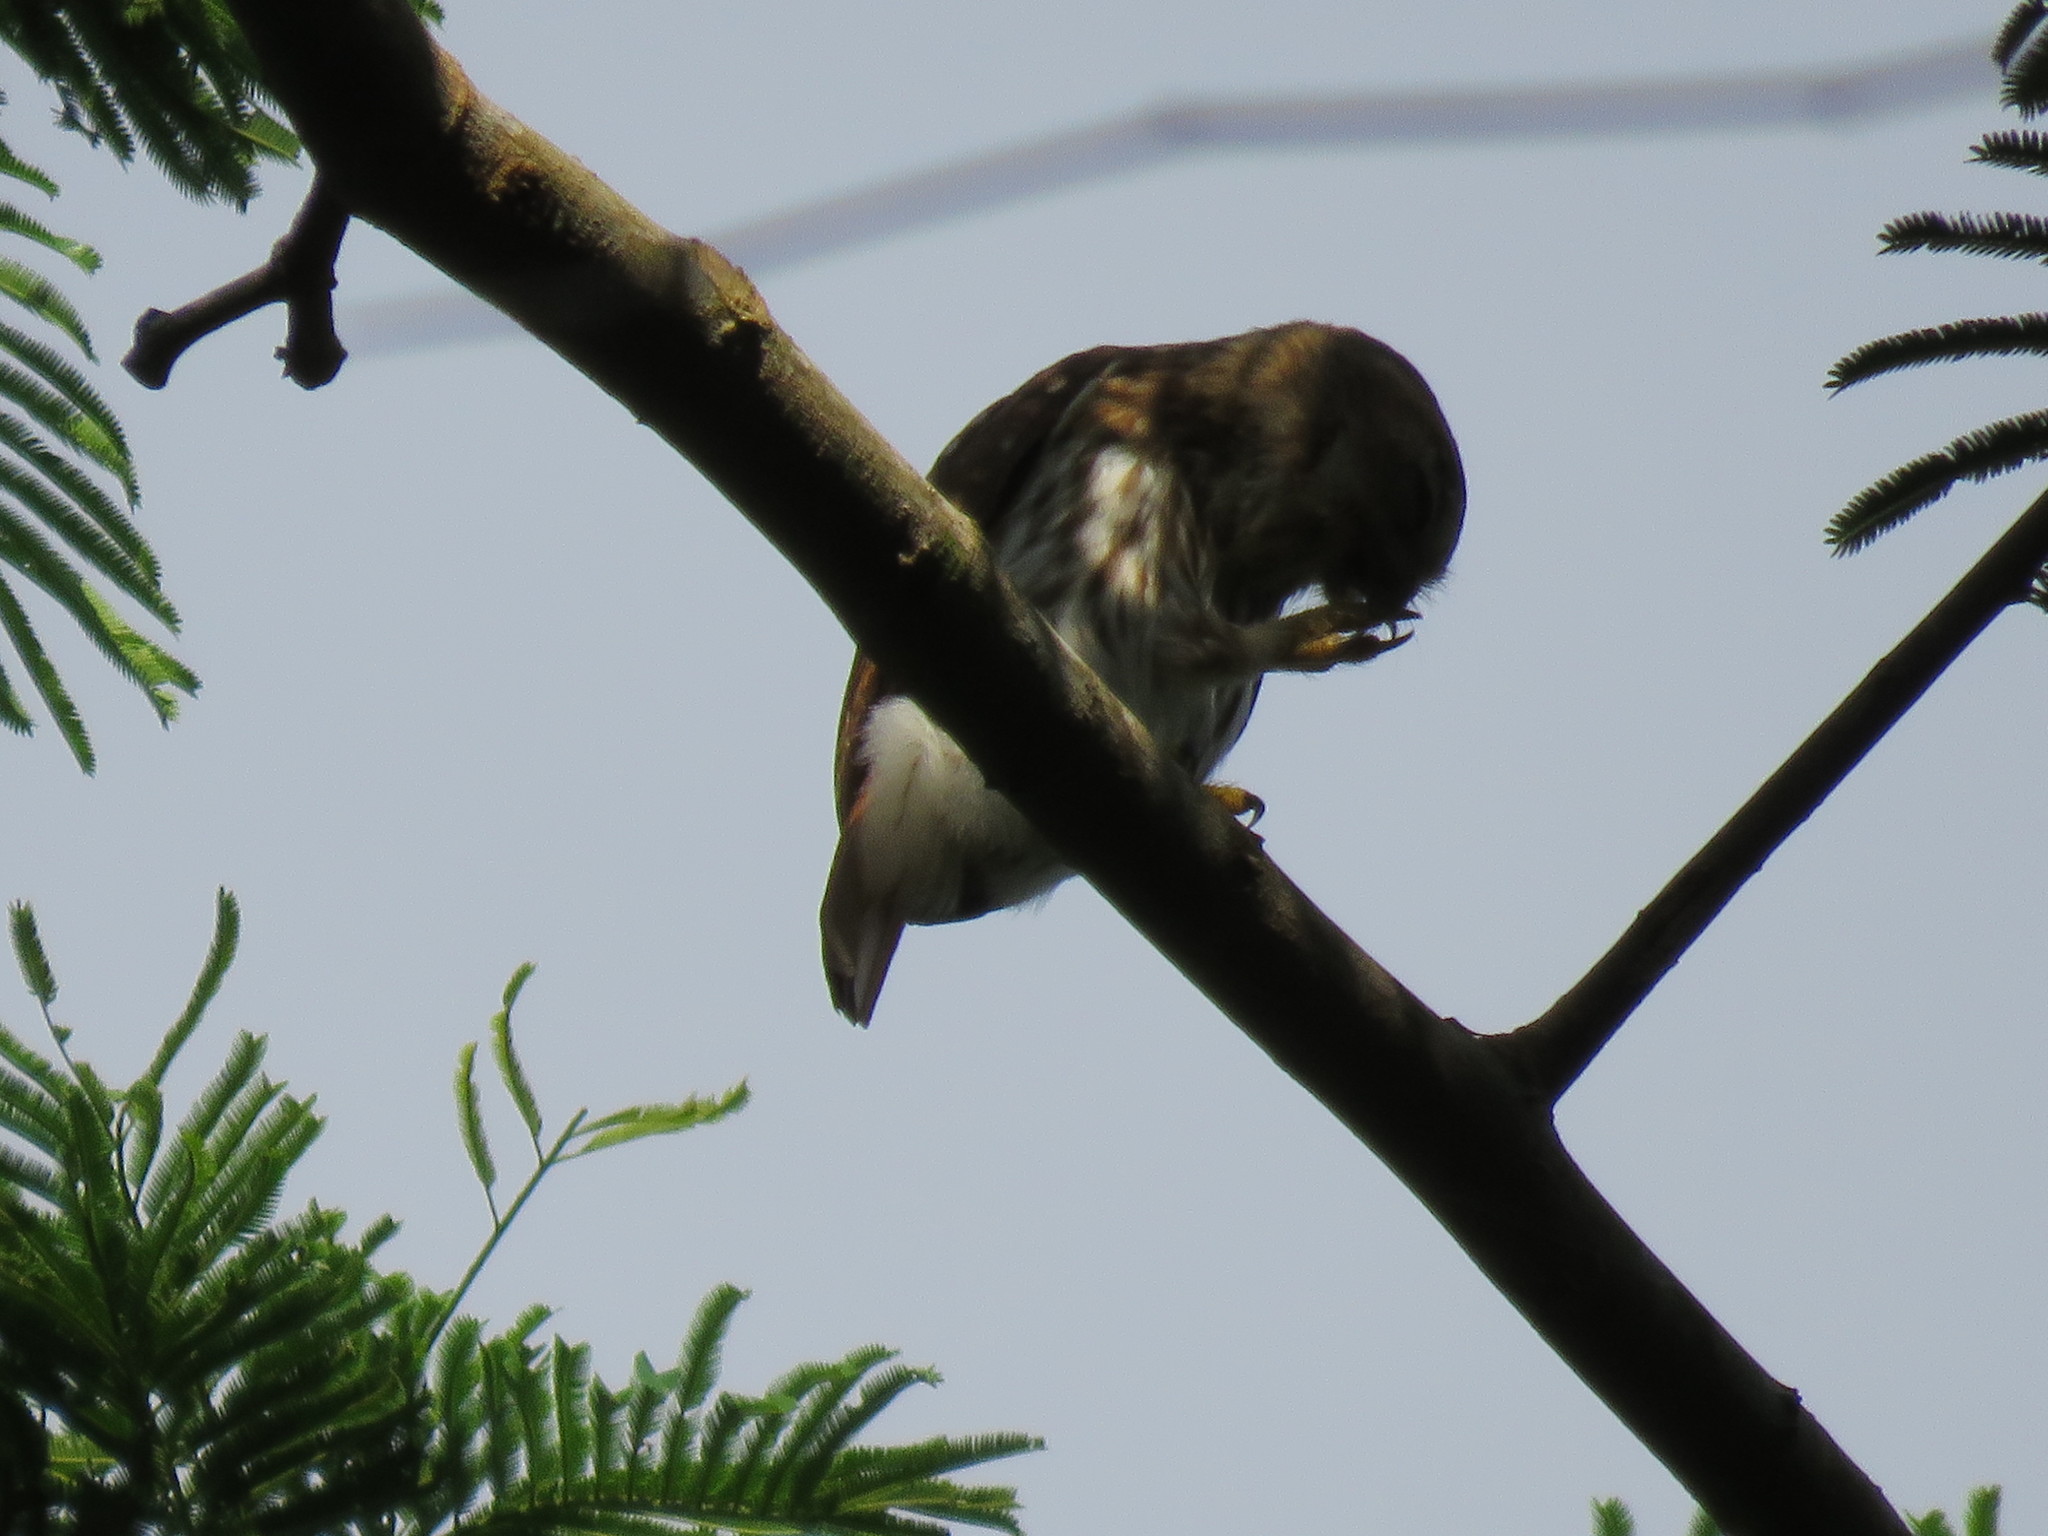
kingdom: Animalia
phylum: Chordata
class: Aves
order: Strigiformes
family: Strigidae
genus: Glaucidium
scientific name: Glaucidium brasilianum
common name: Ferruginous pygmy-owl
